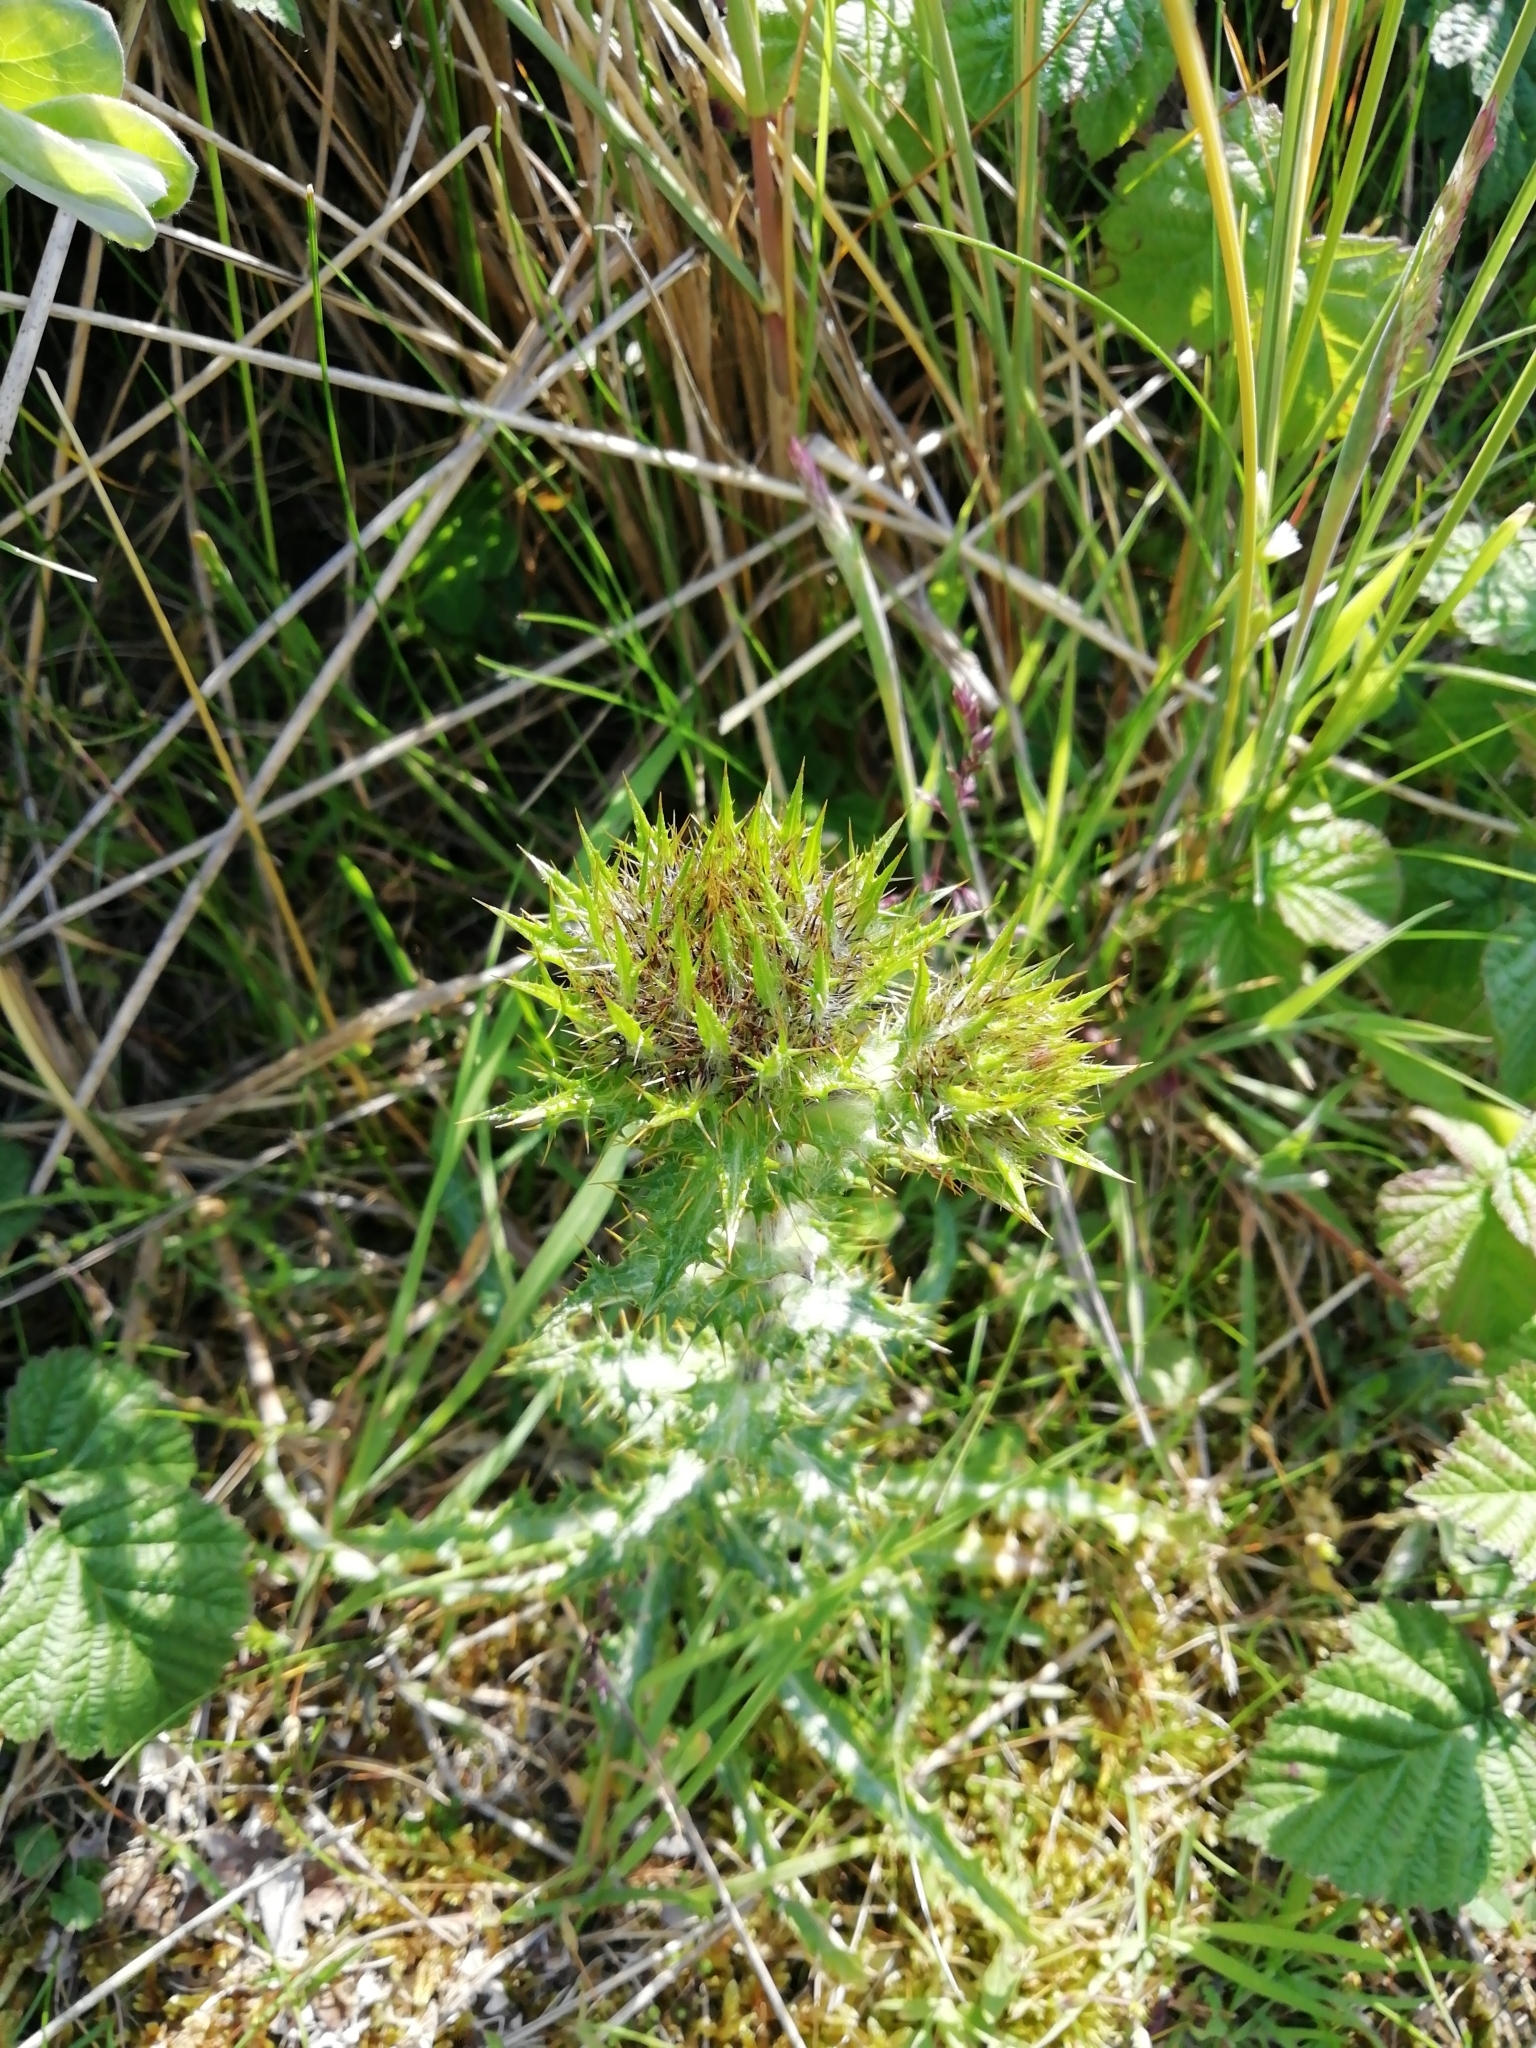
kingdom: Plantae
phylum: Tracheophyta
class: Magnoliopsida
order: Asterales
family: Asteraceae
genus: Carlina
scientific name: Carlina vulgaris
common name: Carline thistle
